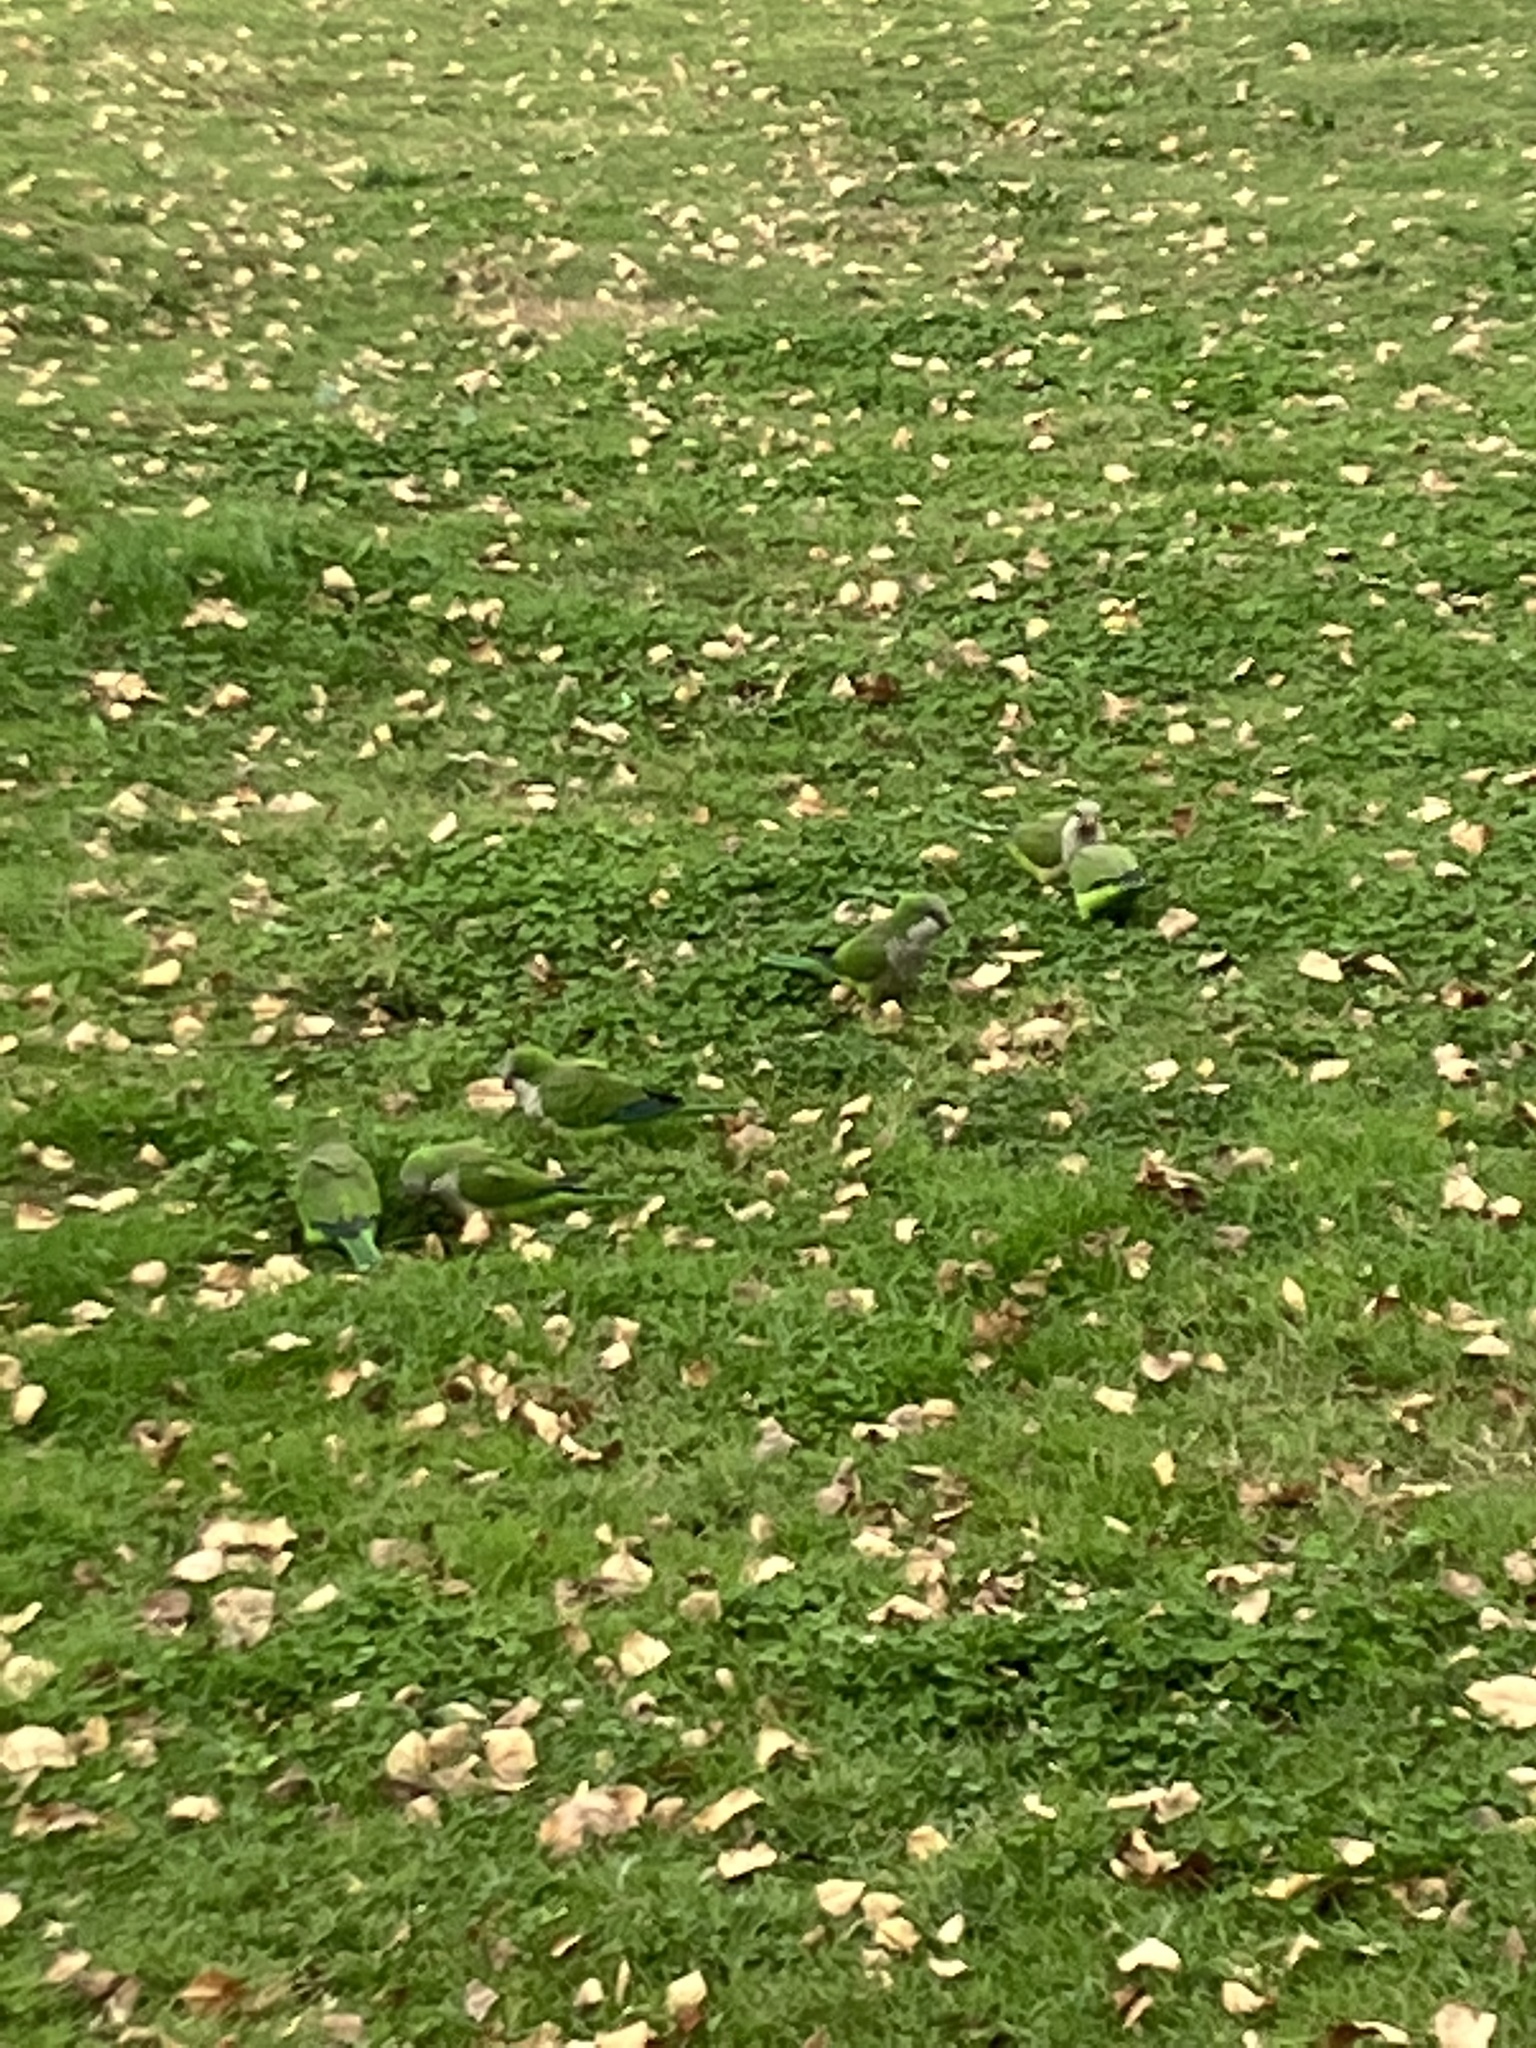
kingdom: Animalia
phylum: Chordata
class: Aves
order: Psittaciformes
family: Psittacidae
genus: Myiopsitta
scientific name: Myiopsitta monachus
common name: Monk parakeet
